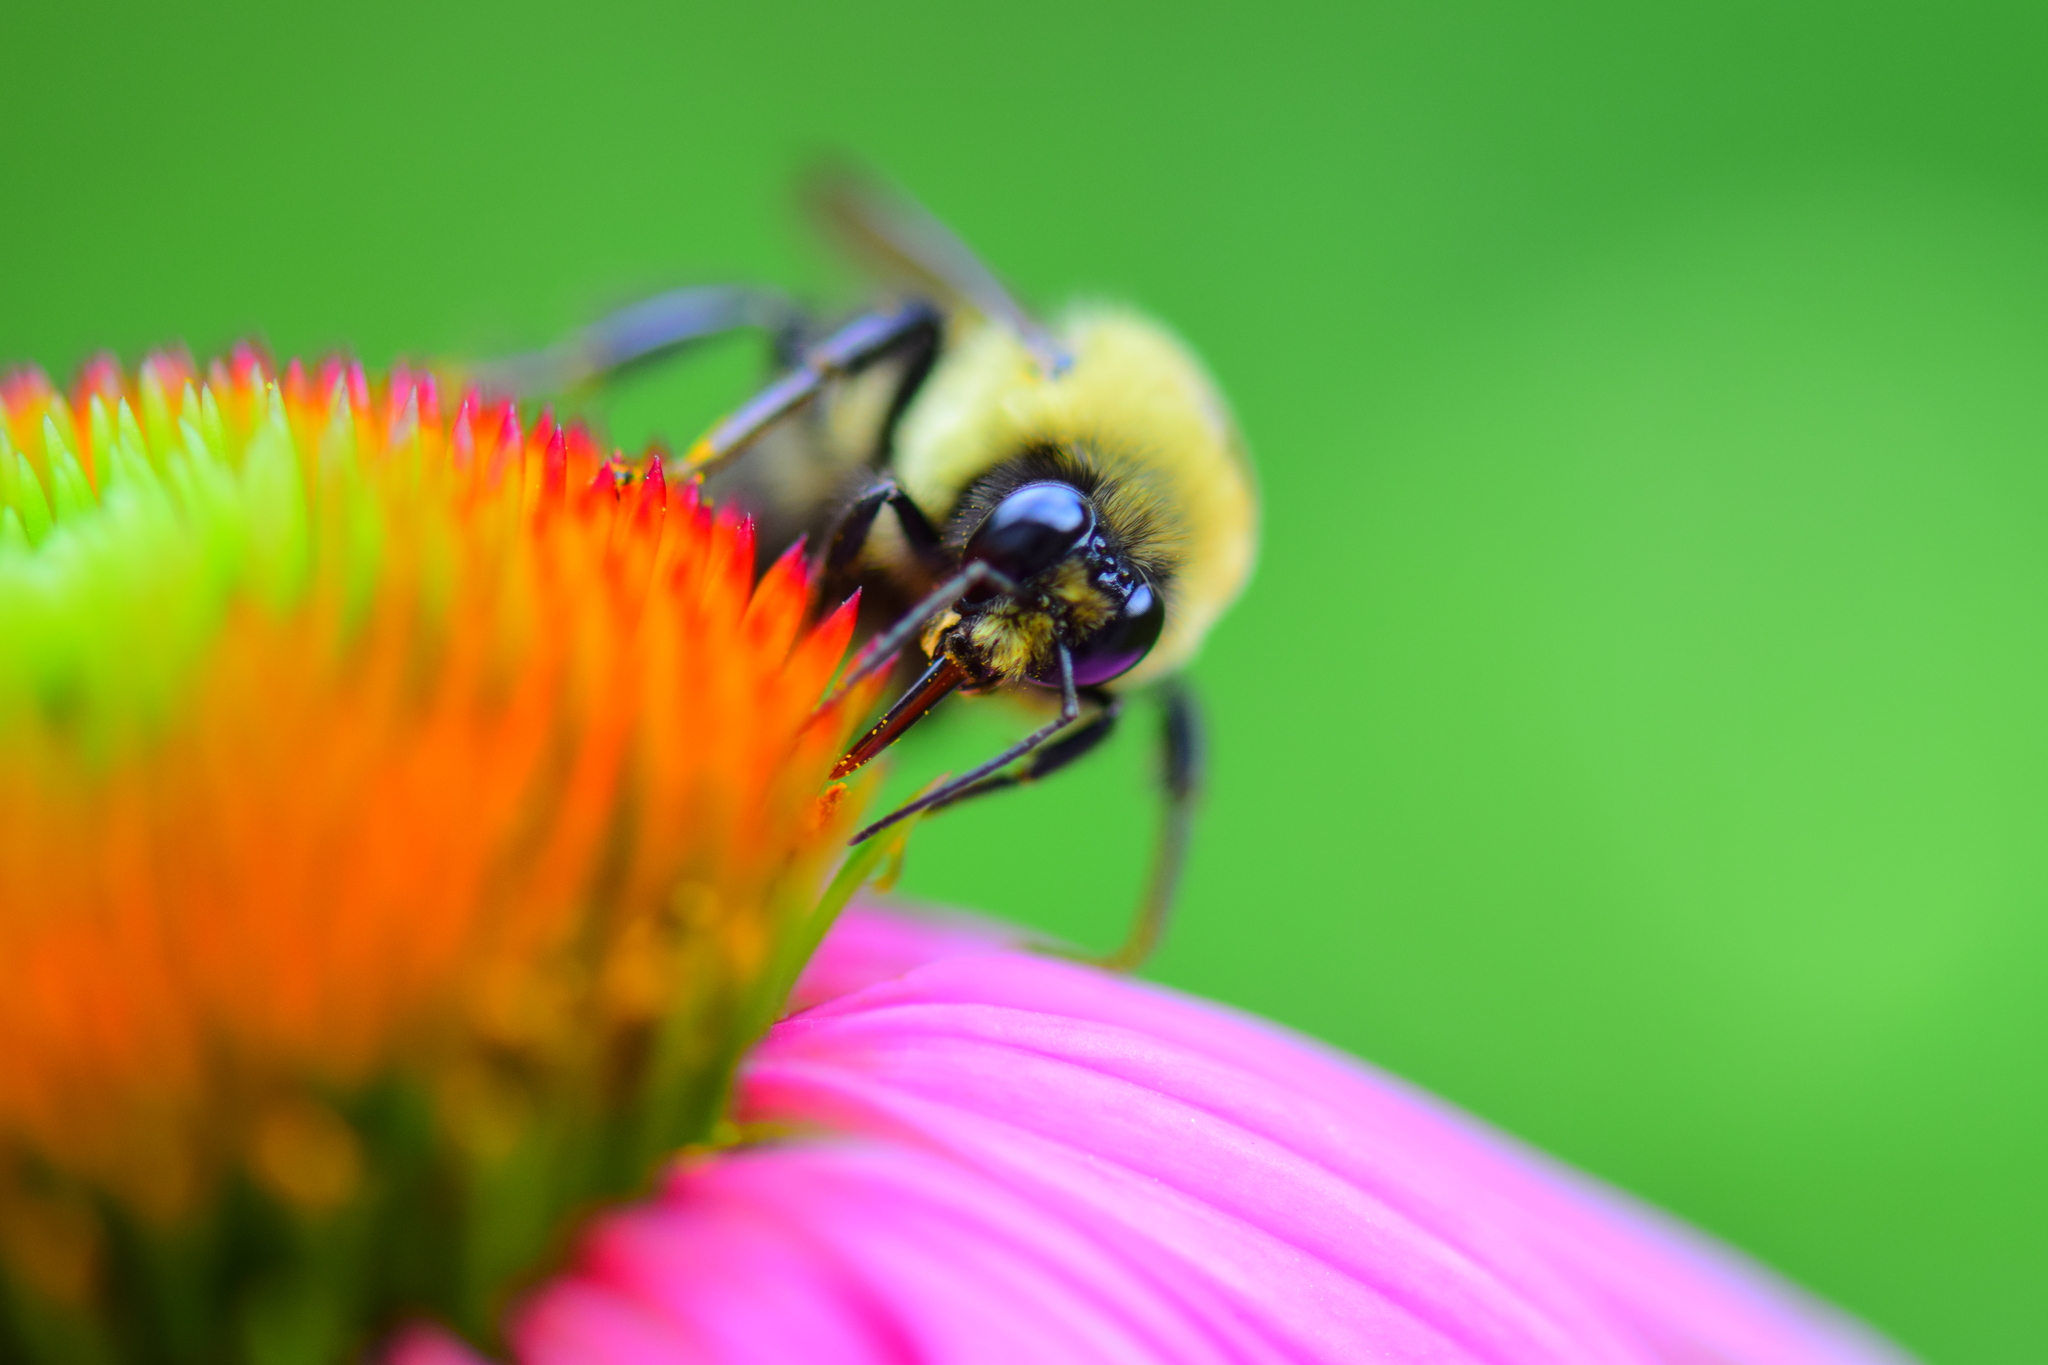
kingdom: Animalia
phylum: Arthropoda
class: Insecta
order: Hymenoptera
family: Apidae
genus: Bombus
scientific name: Bombus griseocollis
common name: Brown-belted bumble bee
